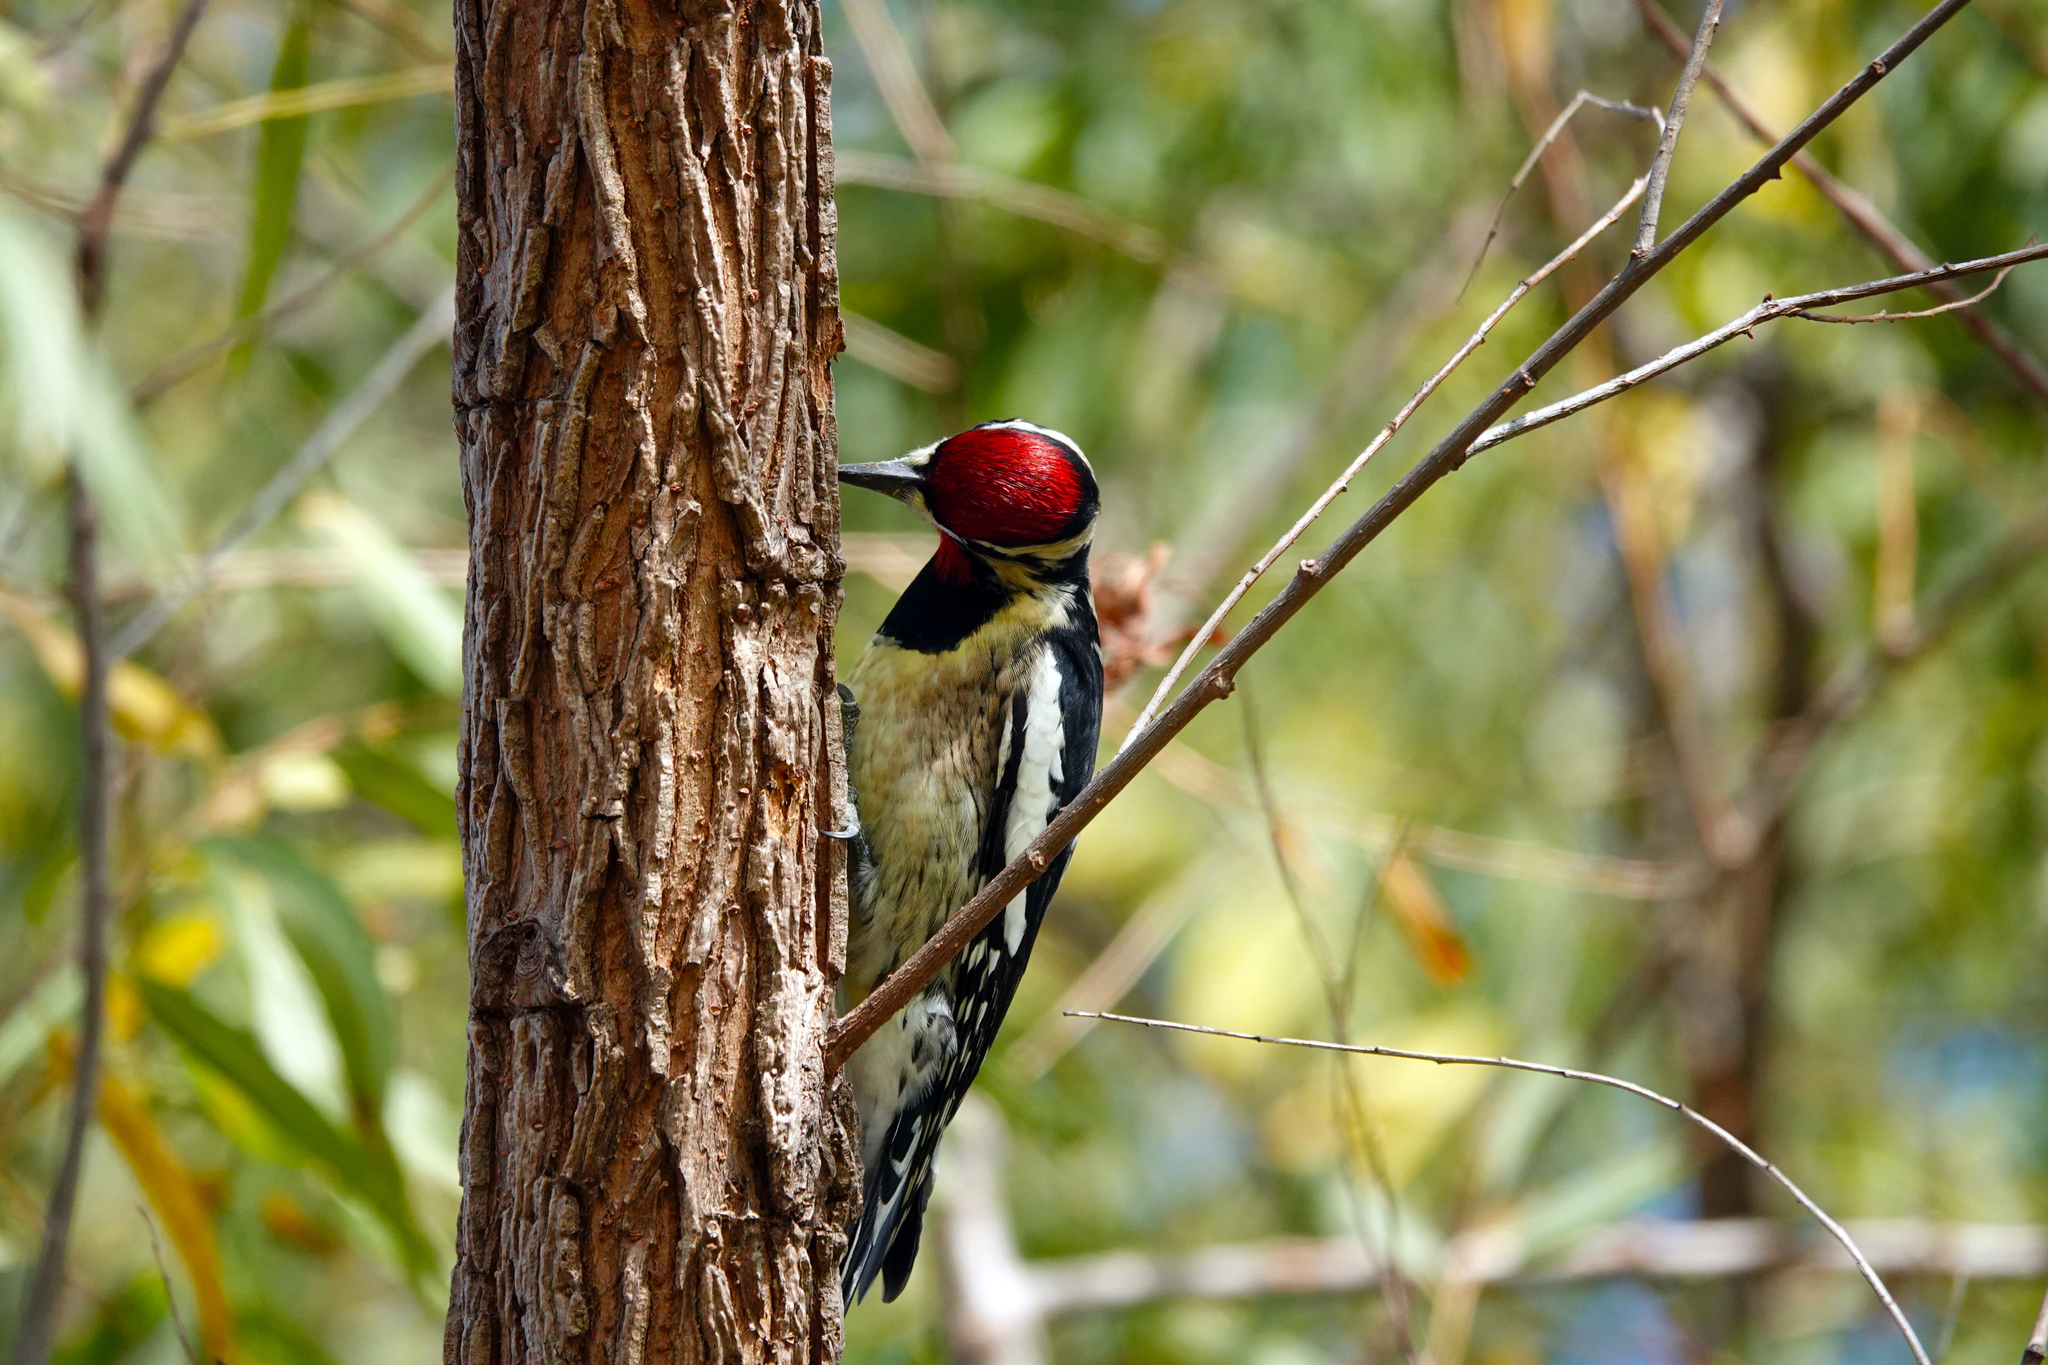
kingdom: Animalia
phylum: Chordata
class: Aves
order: Piciformes
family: Picidae
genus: Sphyrapicus
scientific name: Sphyrapicus varius
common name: Yellow-bellied sapsucker
